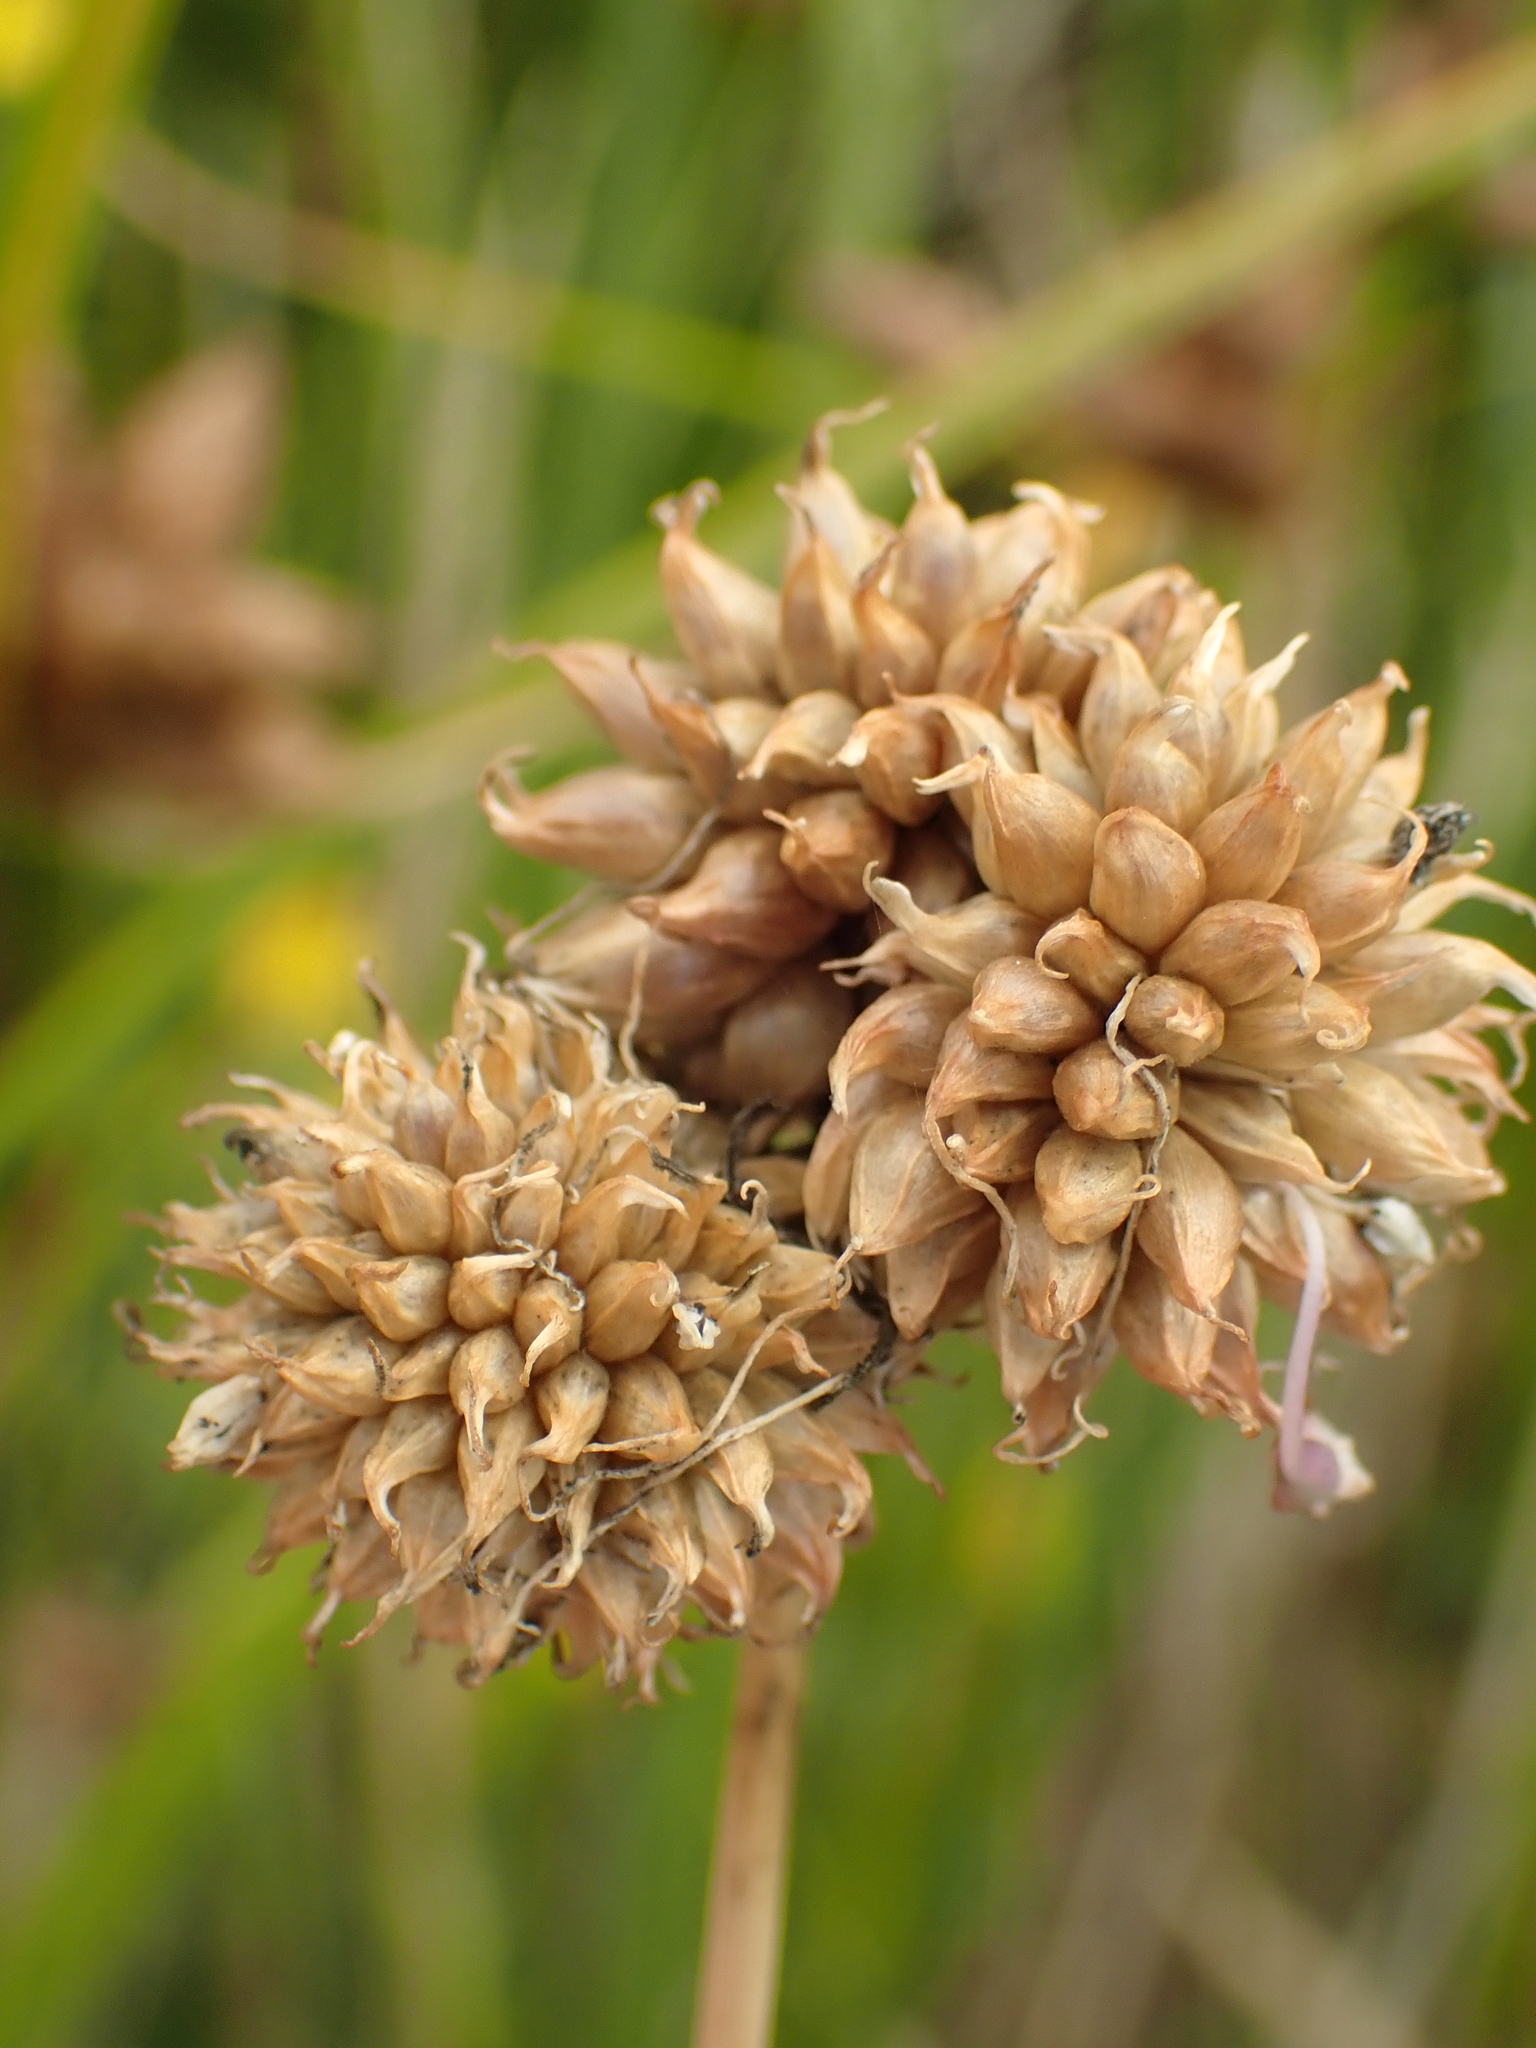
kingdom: Plantae
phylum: Tracheophyta
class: Liliopsida
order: Asparagales
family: Amaryllidaceae
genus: Allium
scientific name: Allium vineale
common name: Crow garlic
